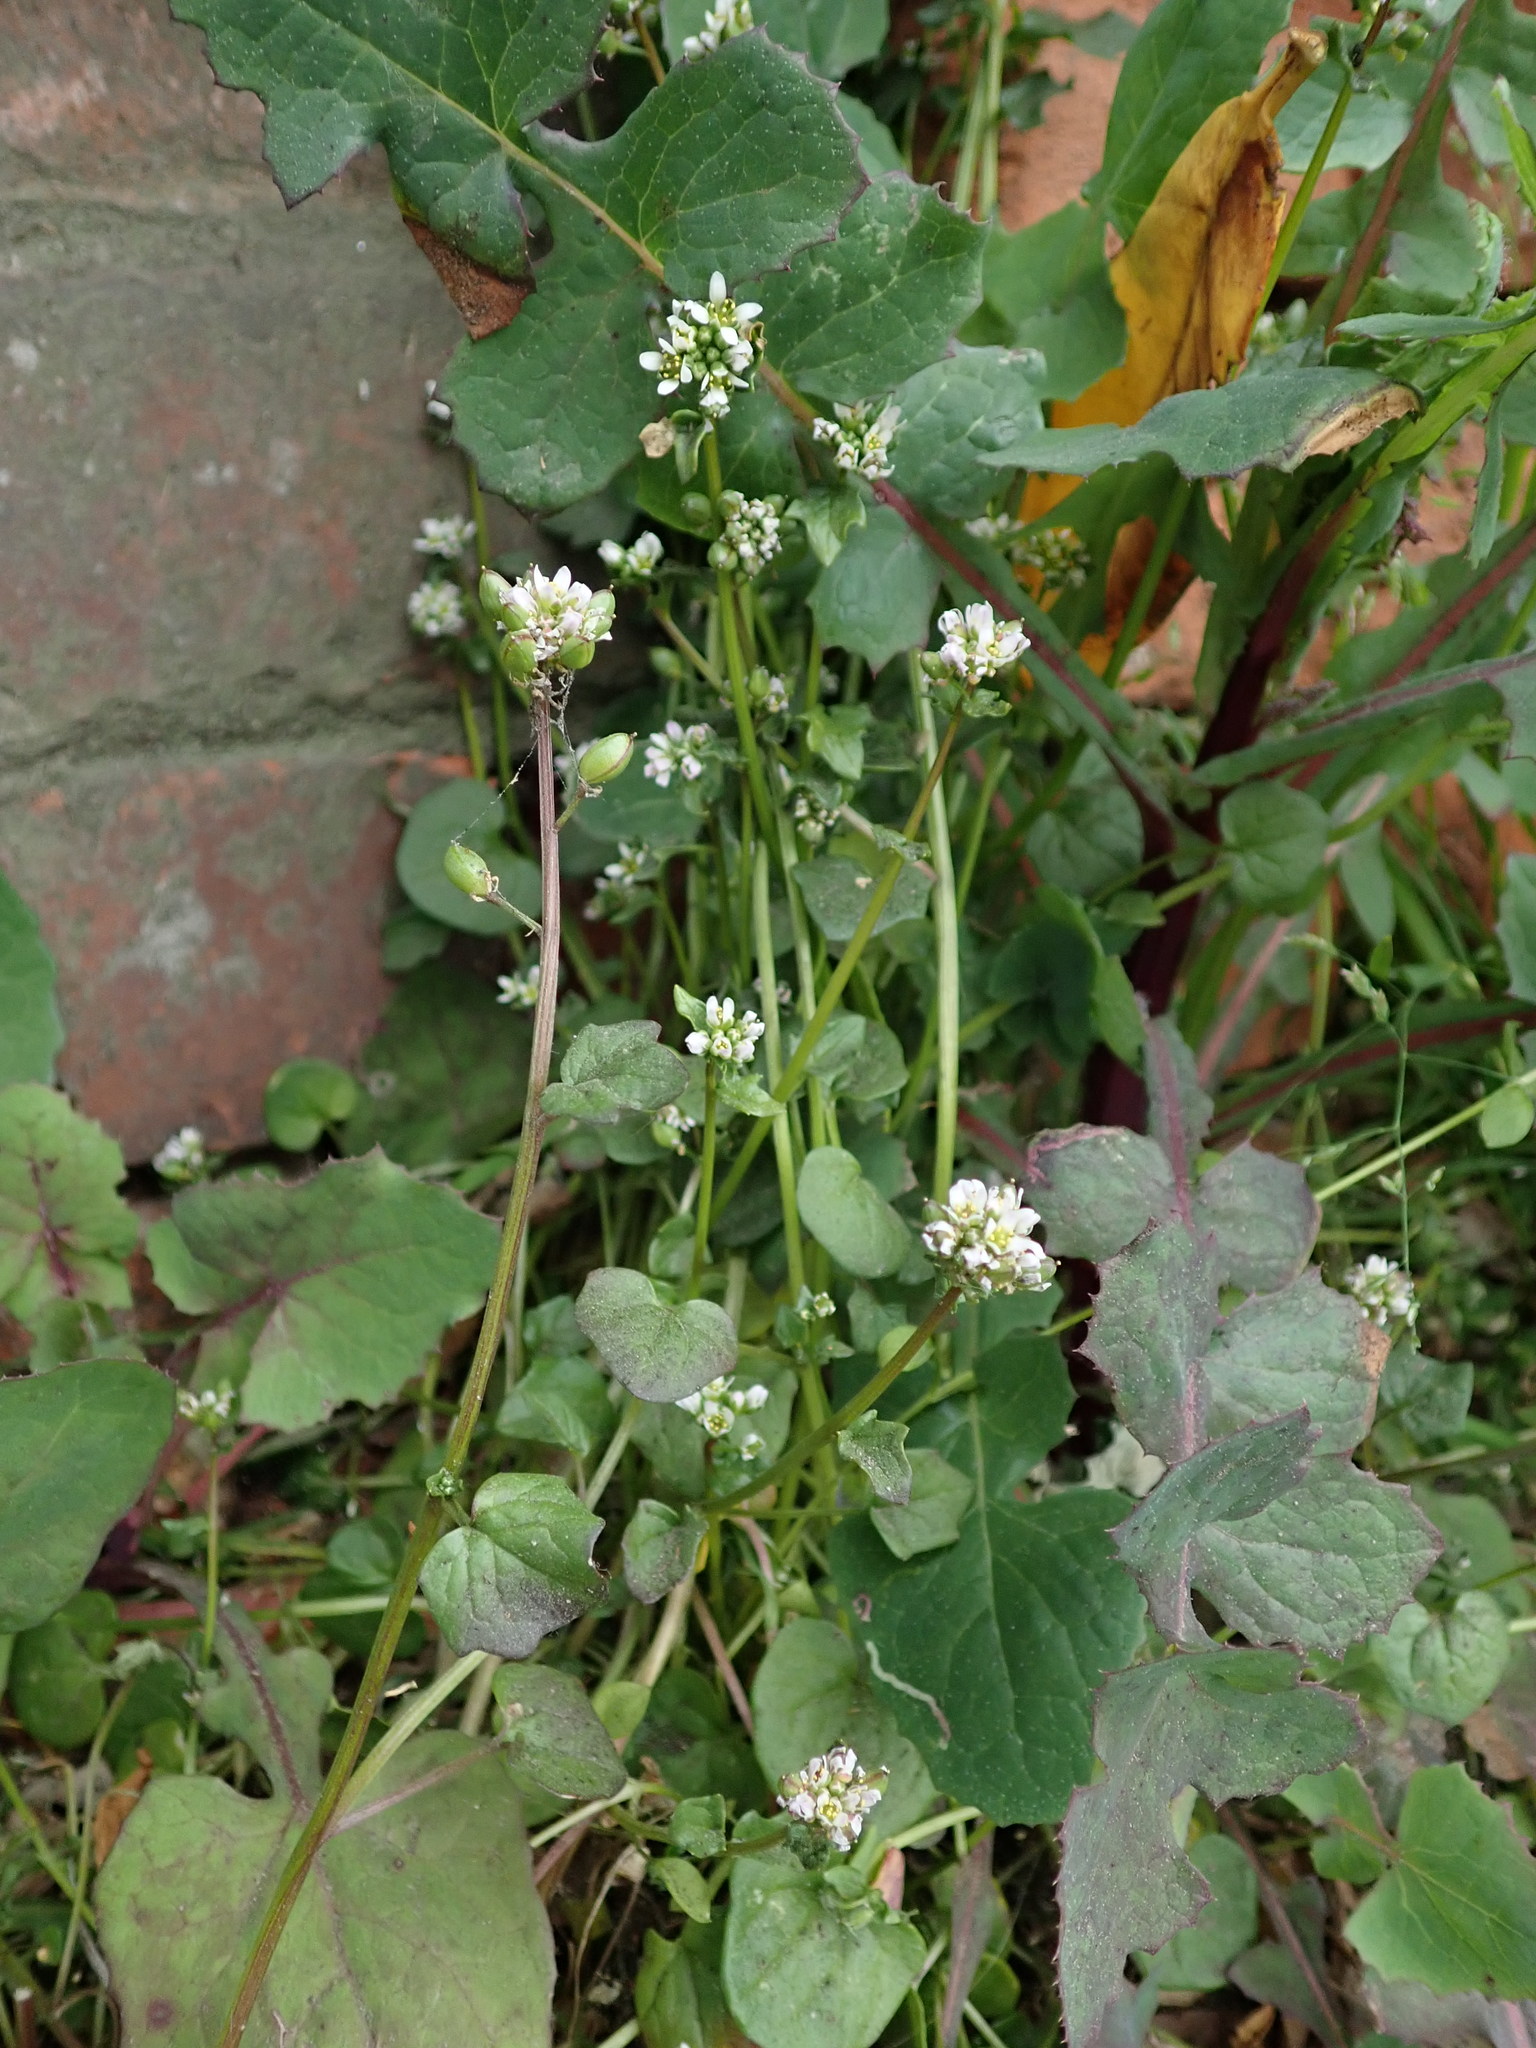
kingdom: Plantae
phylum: Tracheophyta
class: Magnoliopsida
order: Brassicales
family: Brassicaceae
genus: Cochlearia
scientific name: Cochlearia danica
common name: Early scurvygrass
